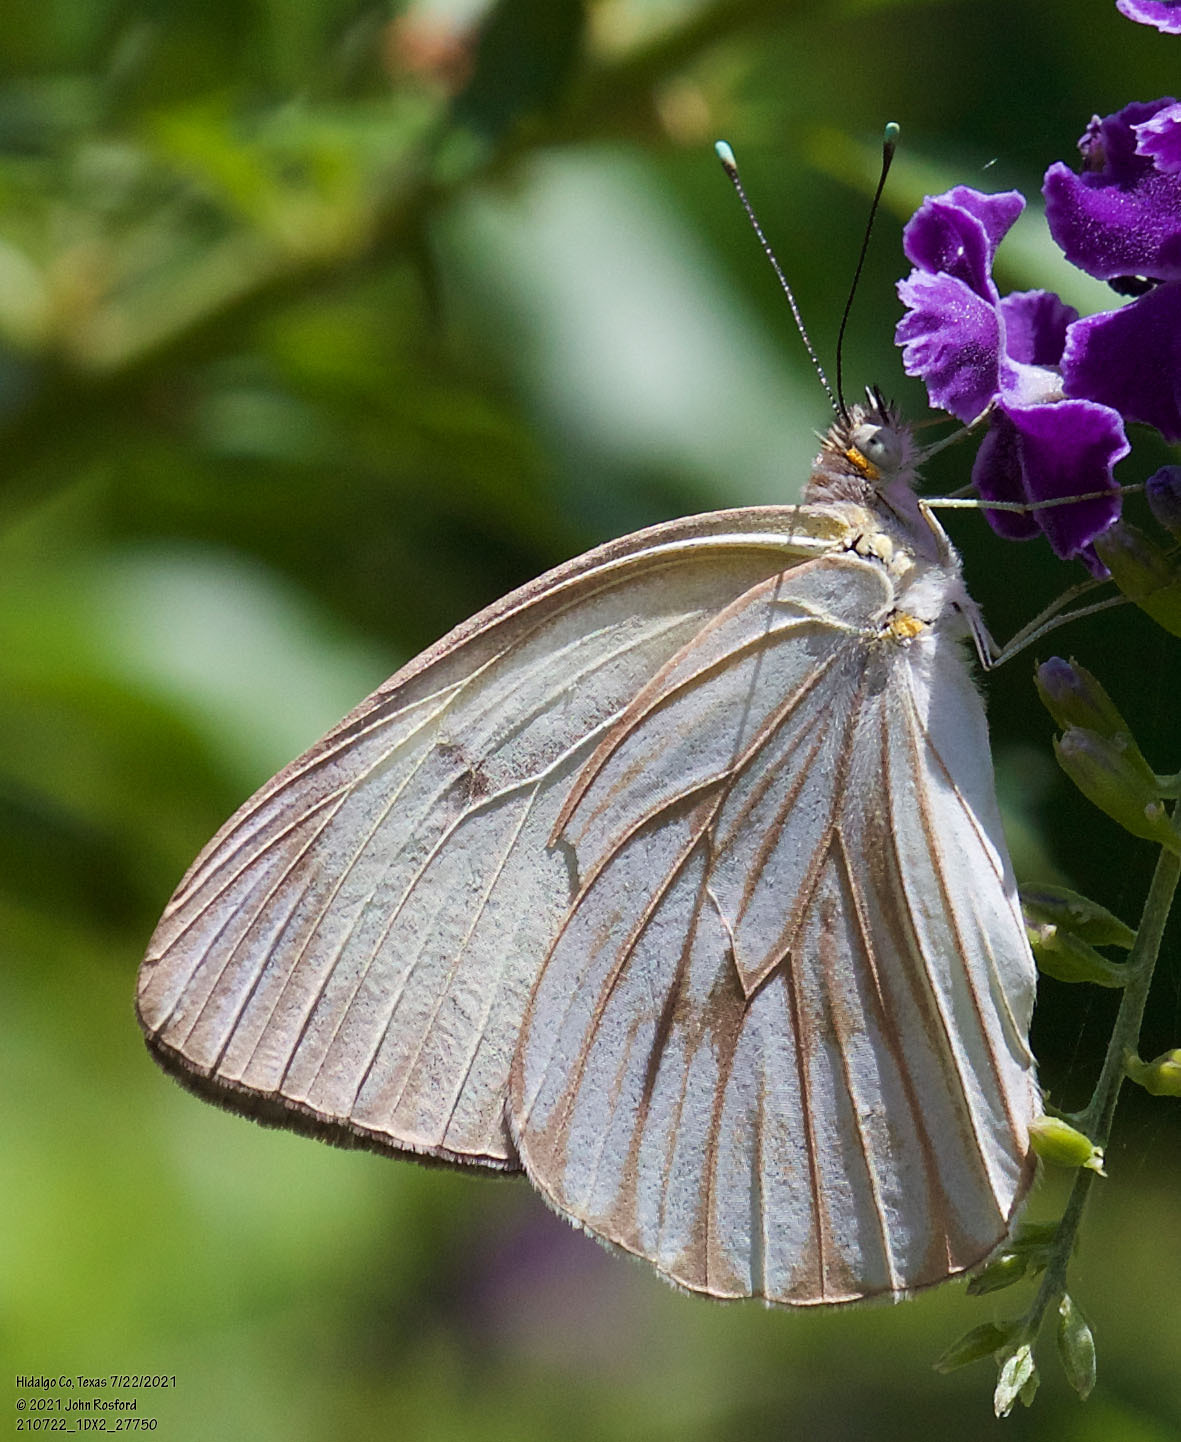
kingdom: Animalia
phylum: Arthropoda
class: Insecta
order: Lepidoptera
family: Pieridae
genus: Ascia
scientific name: Ascia monuste
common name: Great southern white
